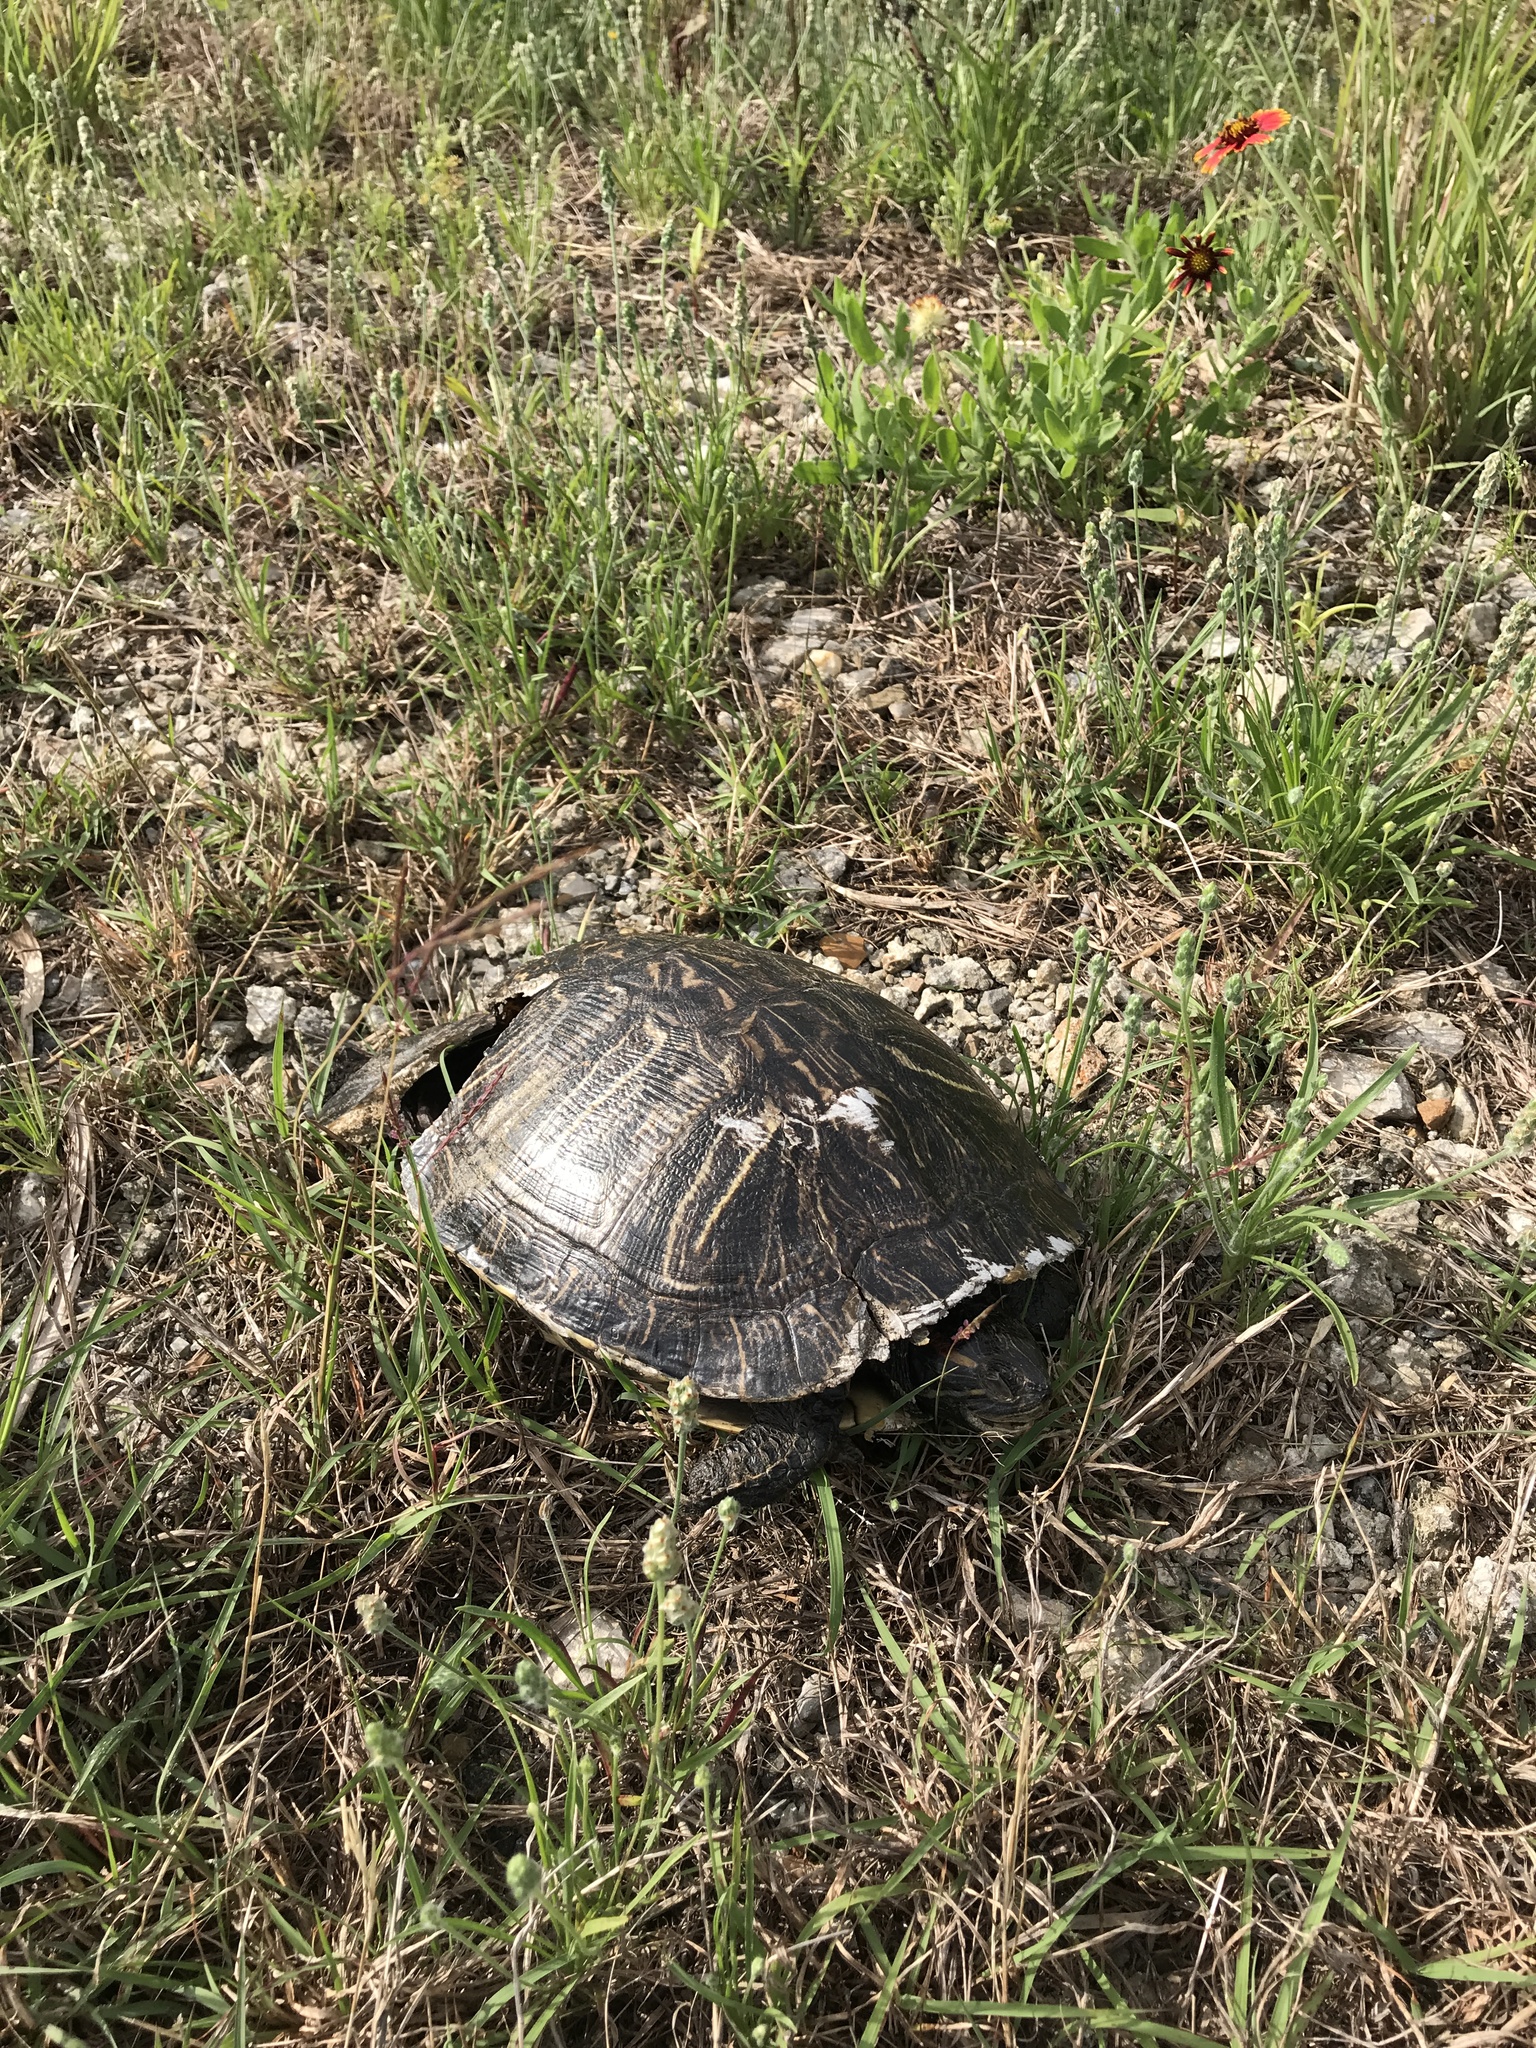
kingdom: Animalia
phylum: Chordata
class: Testudines
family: Emydidae
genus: Trachemys
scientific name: Trachemys scripta
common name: Slider
